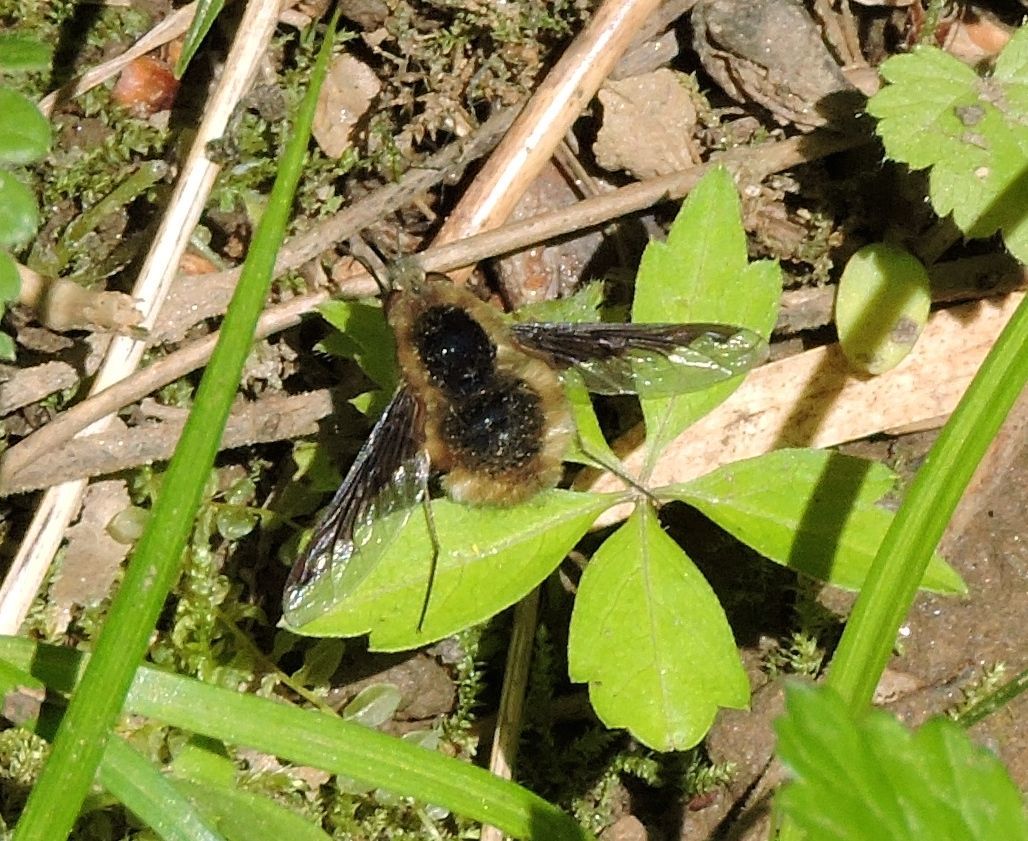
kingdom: Animalia
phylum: Arthropoda
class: Insecta
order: Diptera
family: Bombyliidae
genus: Bombylius
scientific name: Bombylius major
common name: Bee fly
